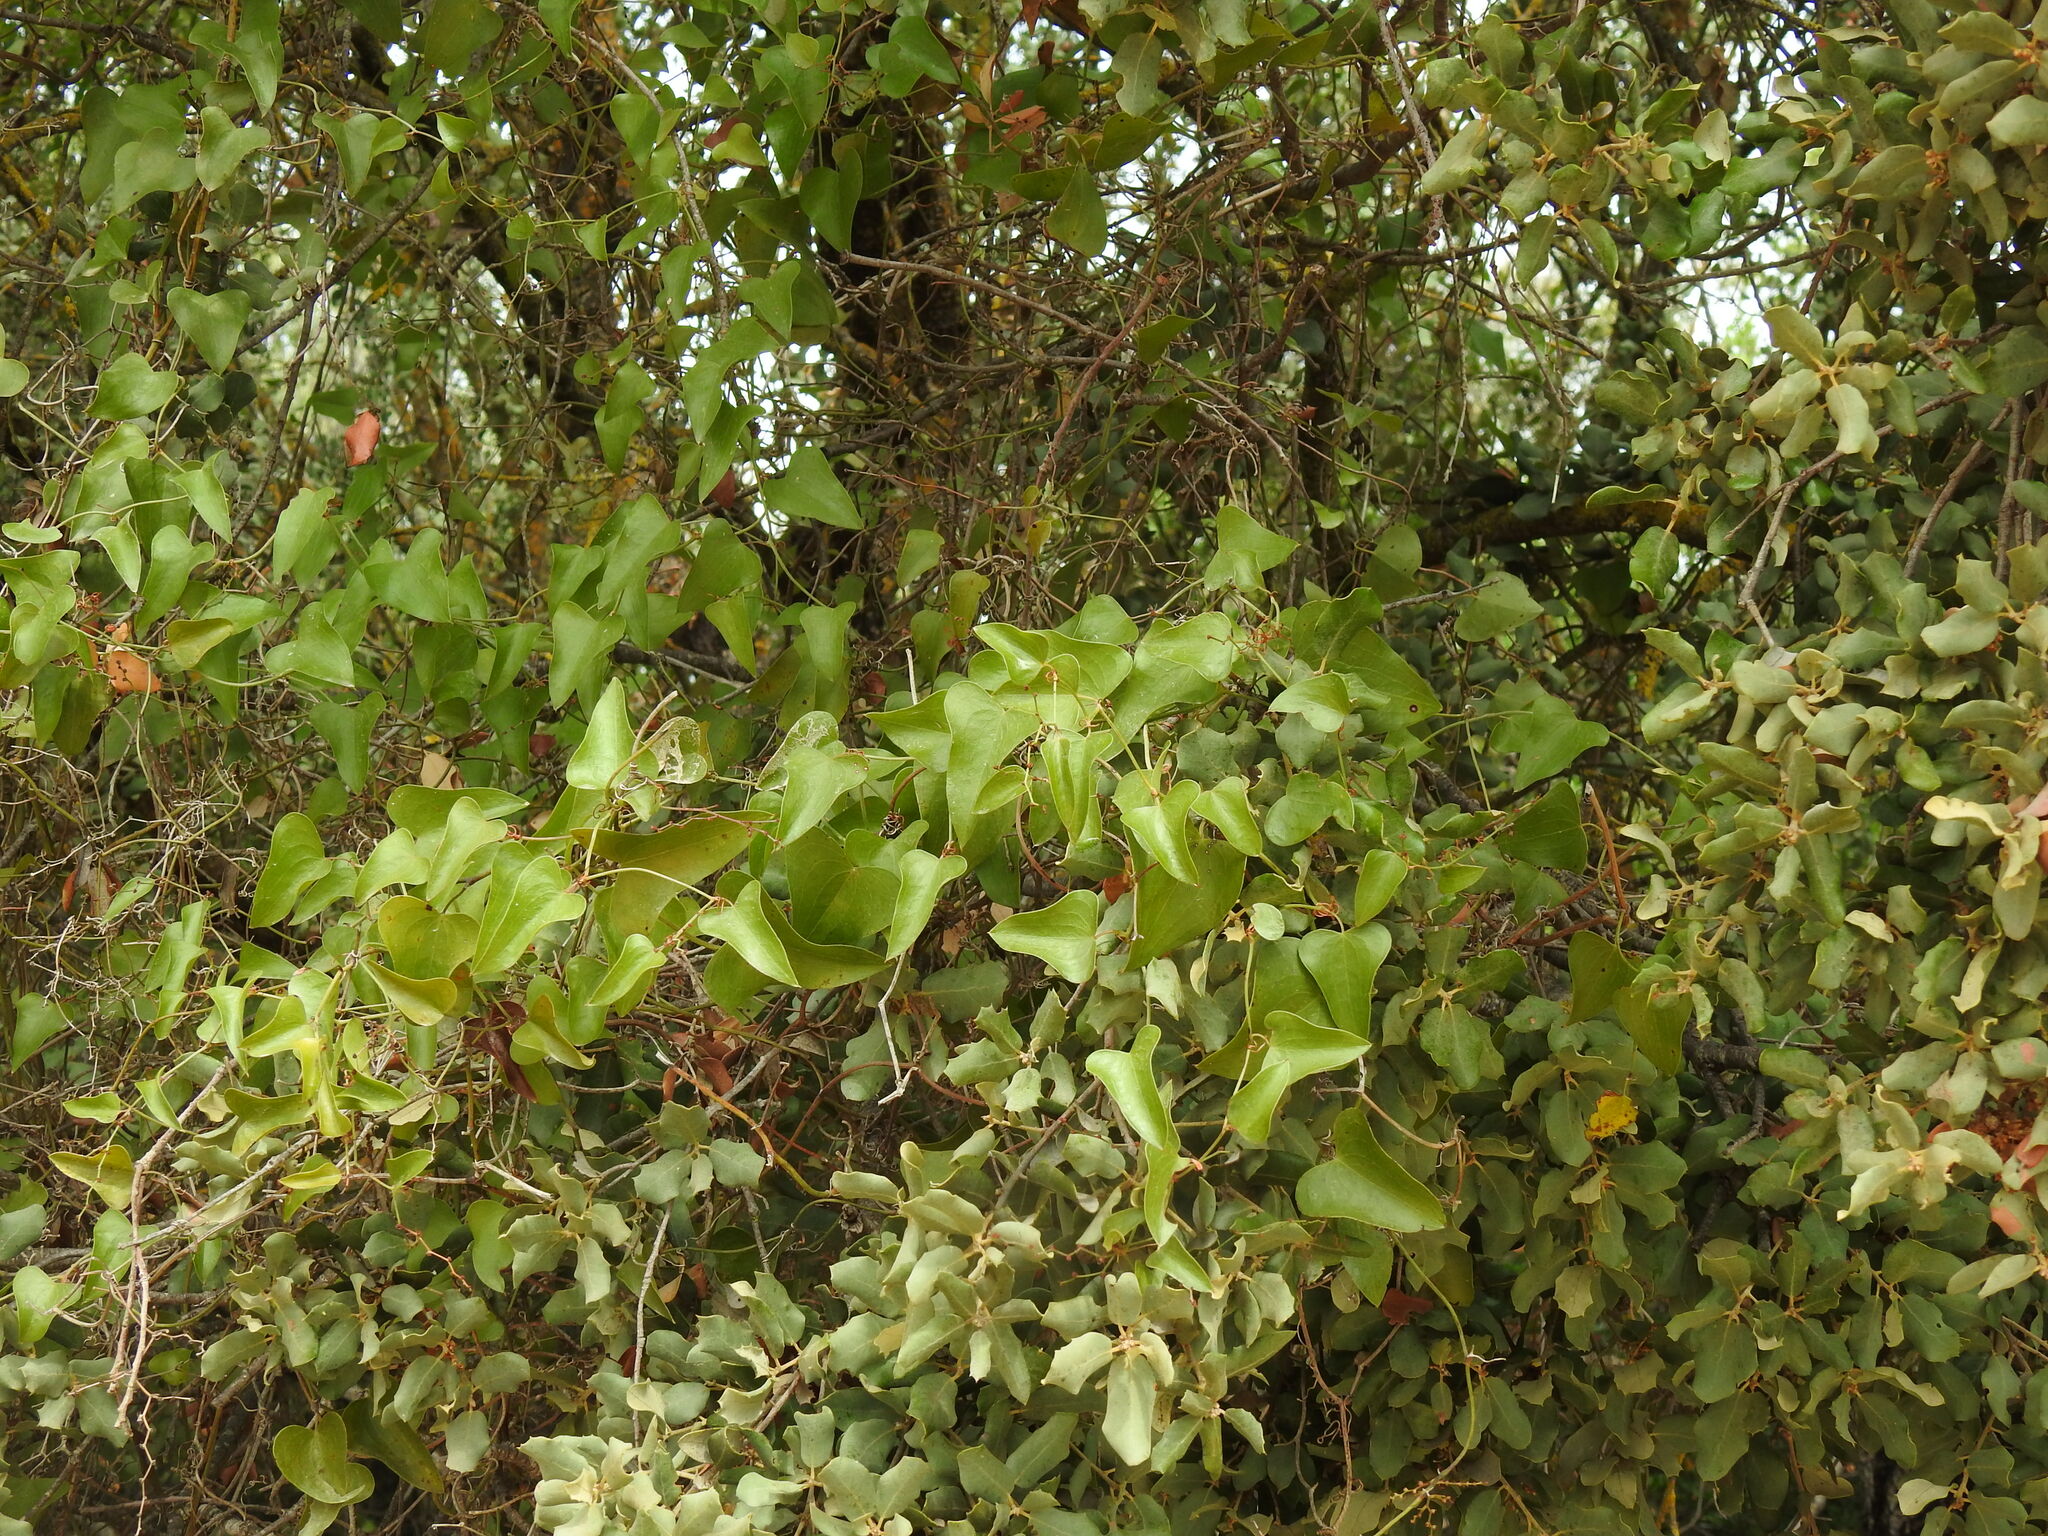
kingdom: Plantae
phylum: Tracheophyta
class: Liliopsida
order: Liliales
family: Smilacaceae
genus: Smilax
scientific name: Smilax aspera
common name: Common smilax
